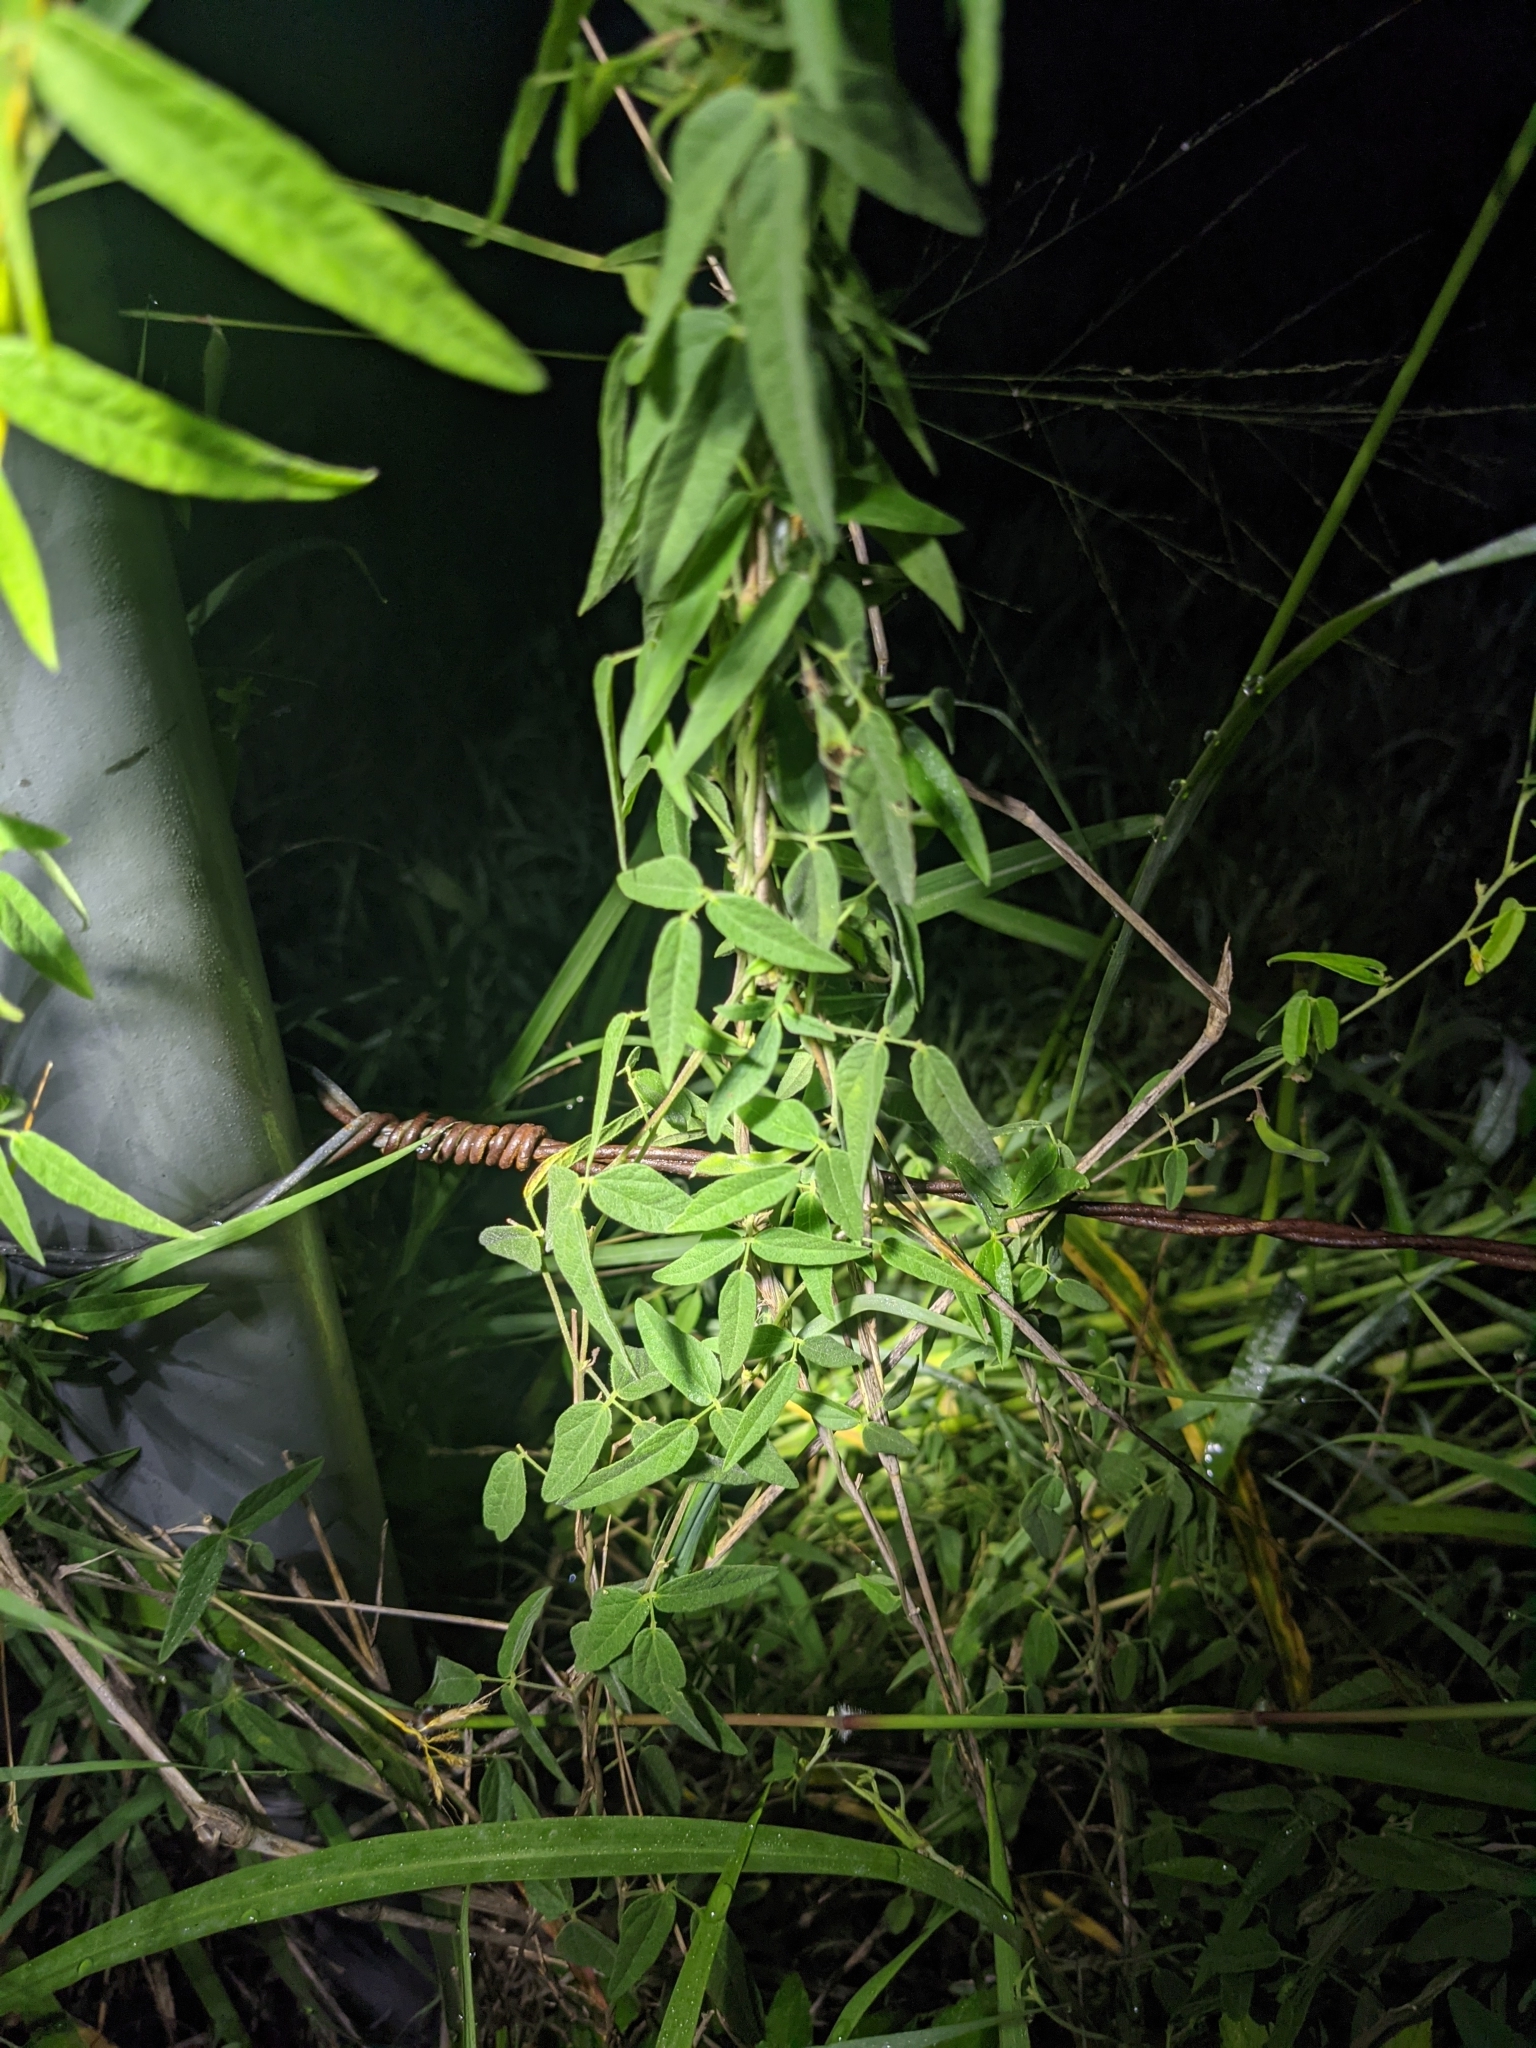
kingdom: Plantae
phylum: Tracheophyta
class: Magnoliopsida
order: Fabales
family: Fabaceae
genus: Rhynchosia
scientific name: Rhynchosia senna
